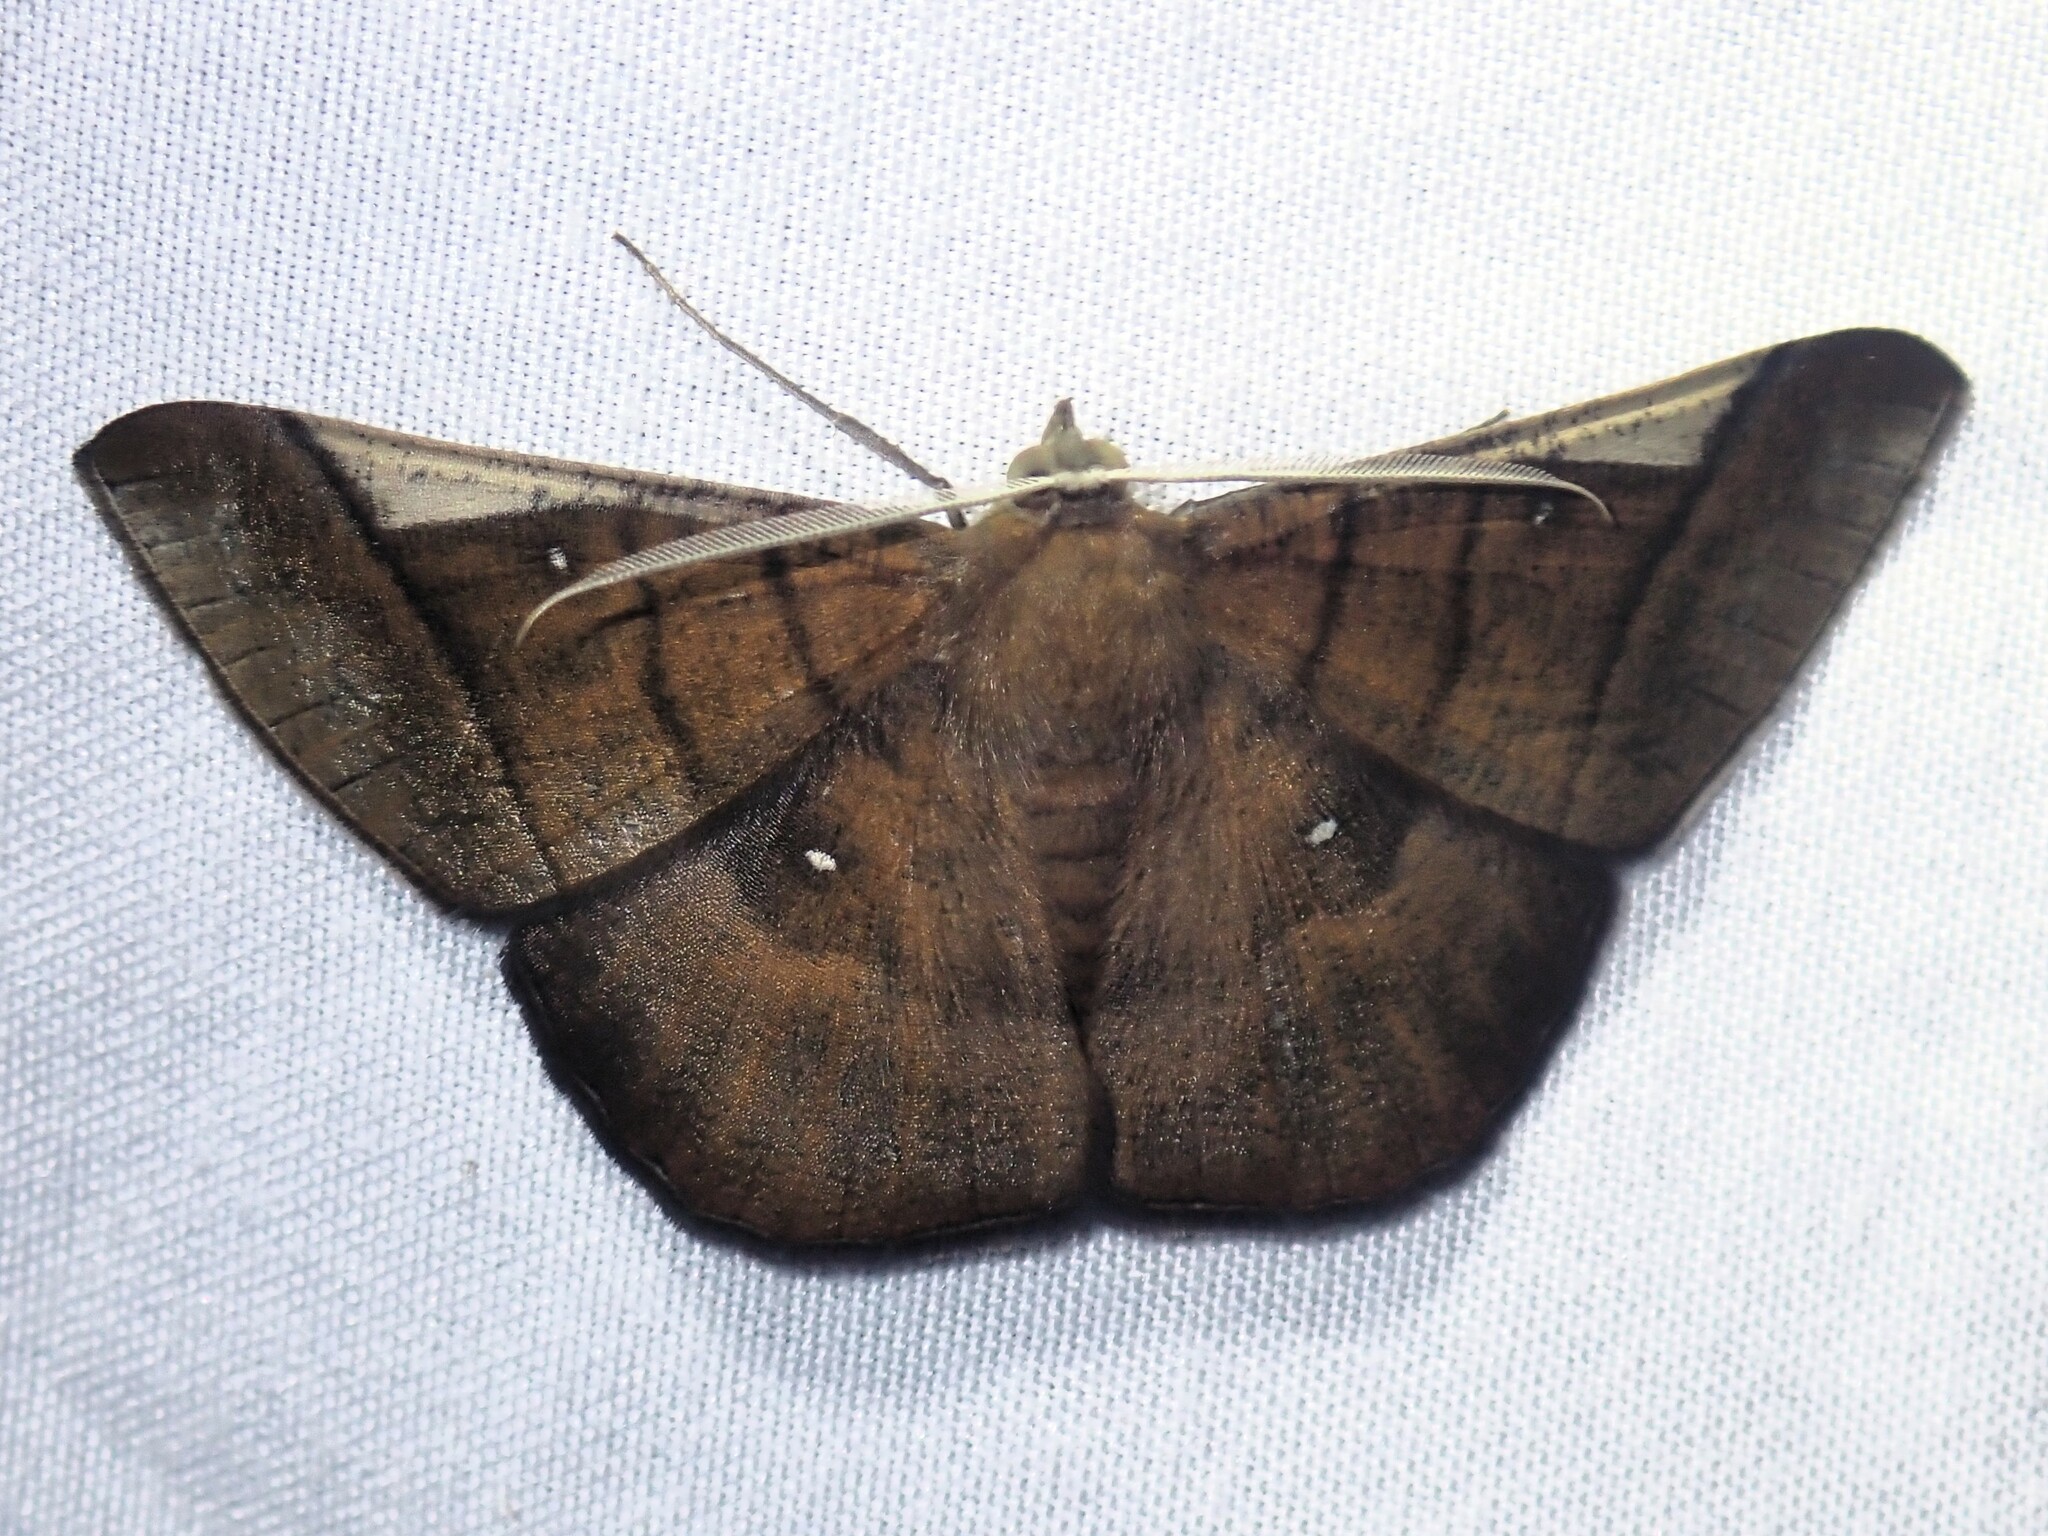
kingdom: Animalia
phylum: Arthropoda
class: Insecta
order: Lepidoptera
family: Geometridae
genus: Sphacelodes
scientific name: Sphacelodes vulneraria
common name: Looper moth
